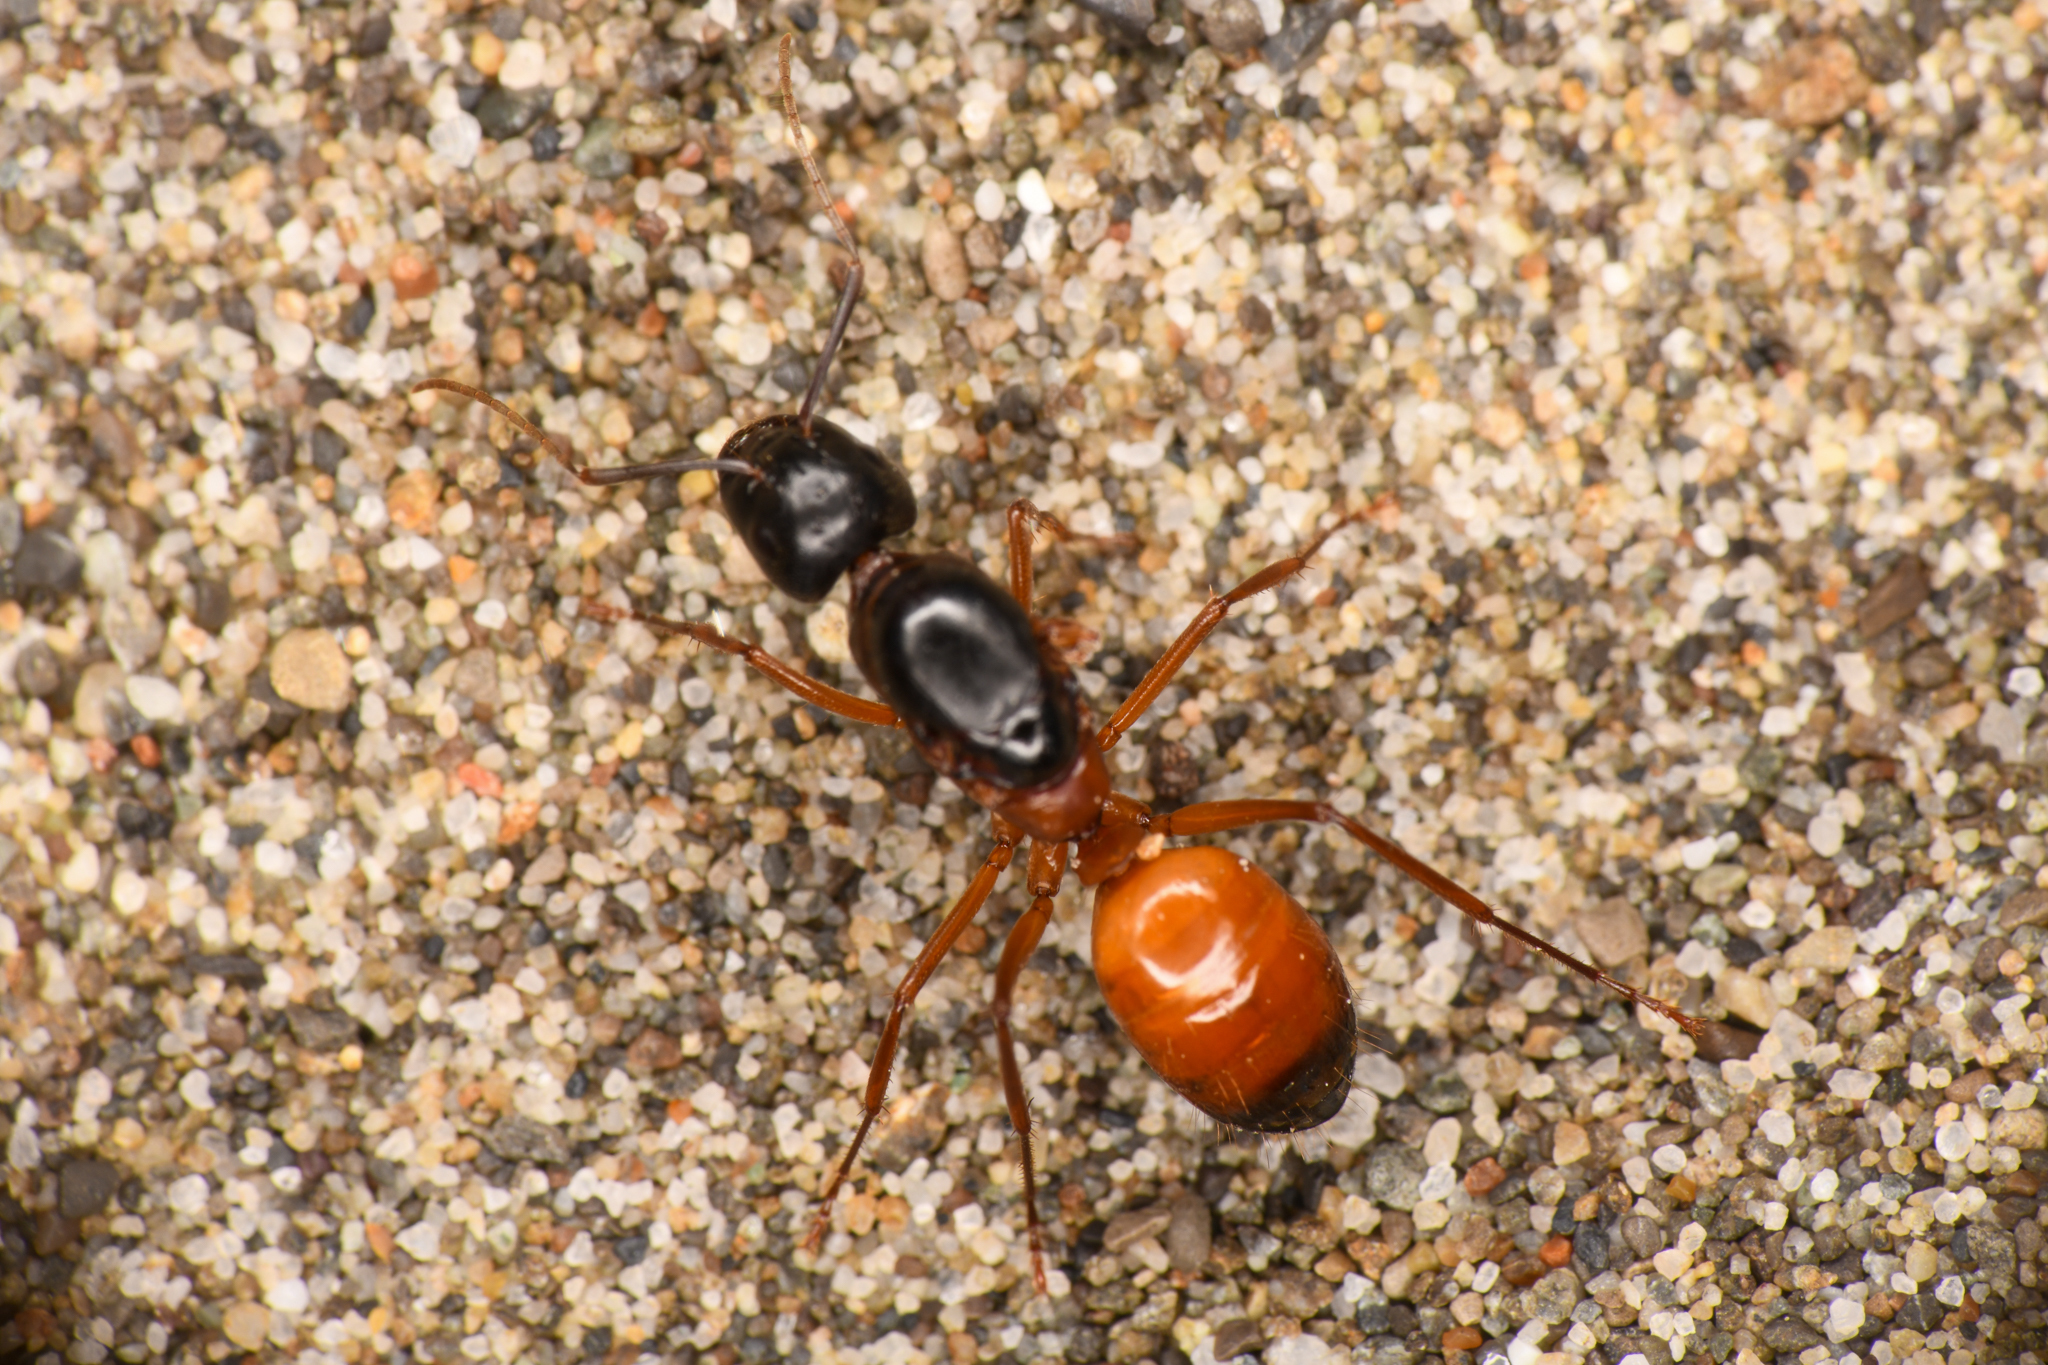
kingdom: Animalia
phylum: Arthropoda
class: Insecta
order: Hymenoptera
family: Formicidae
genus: Camponotus
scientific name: Camponotus semitestaceus
